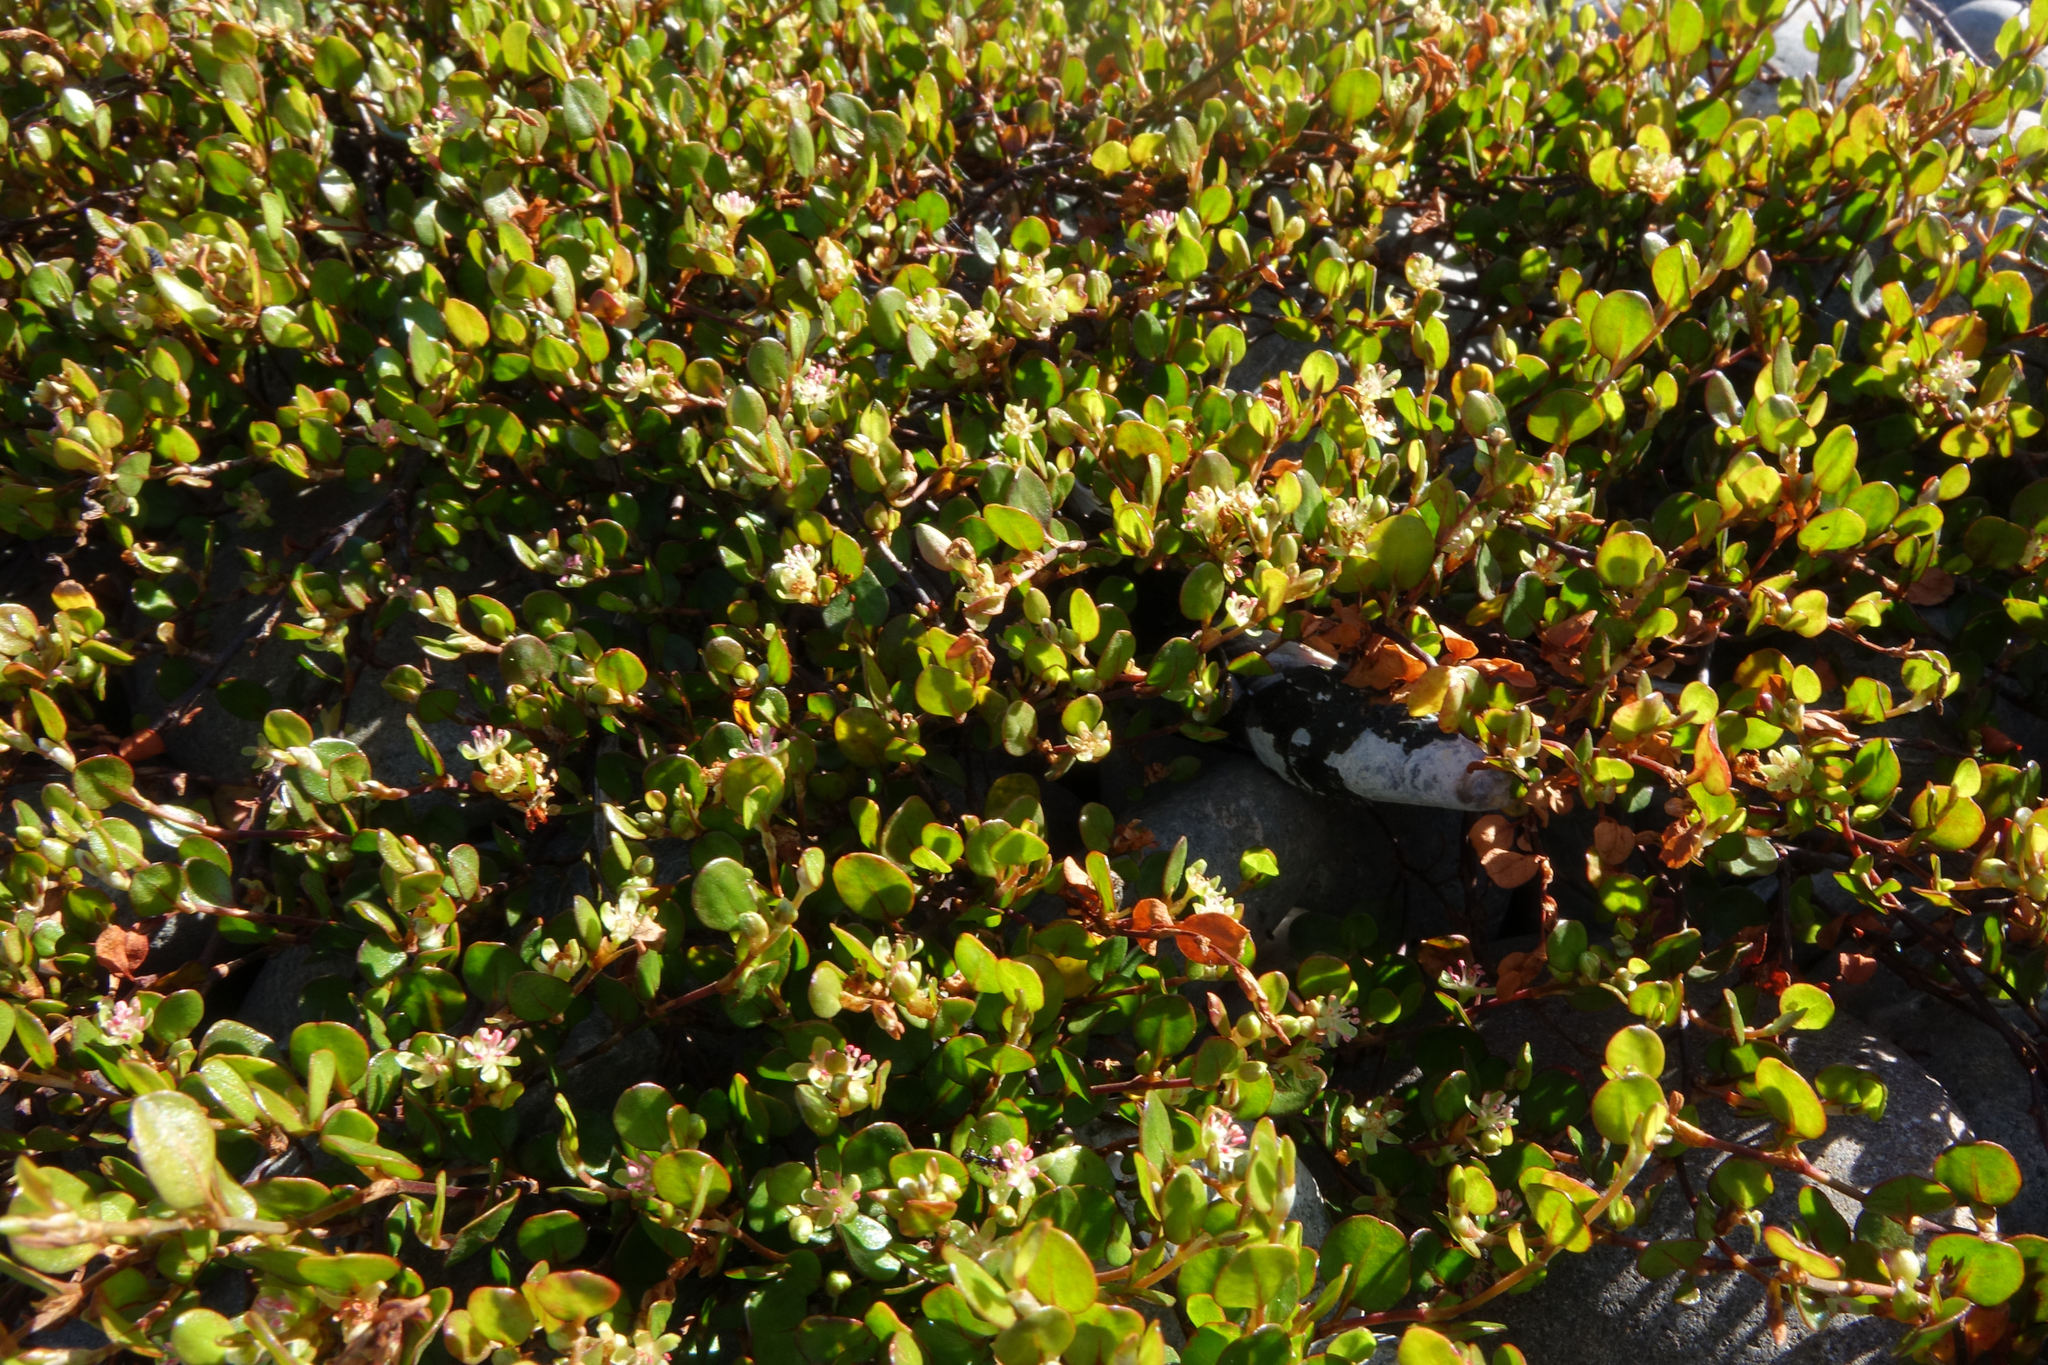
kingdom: Plantae
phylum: Tracheophyta
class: Magnoliopsida
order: Caryophyllales
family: Polygonaceae
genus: Muehlenbeckia
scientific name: Muehlenbeckia axillaris
